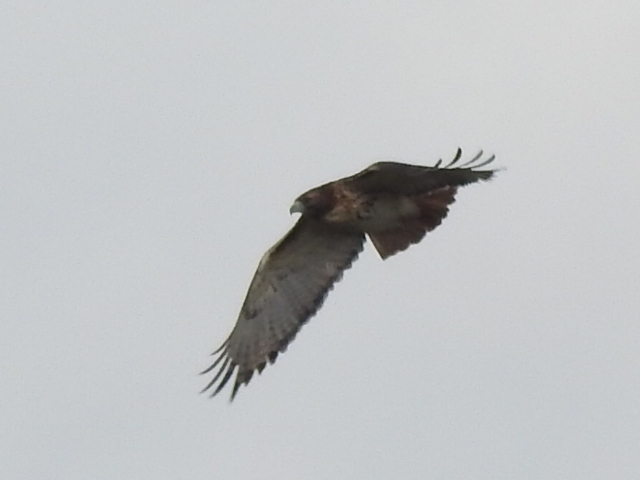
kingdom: Animalia
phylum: Chordata
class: Aves
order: Accipitriformes
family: Accipitridae
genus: Buteo
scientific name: Buteo jamaicensis
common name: Red-tailed hawk
